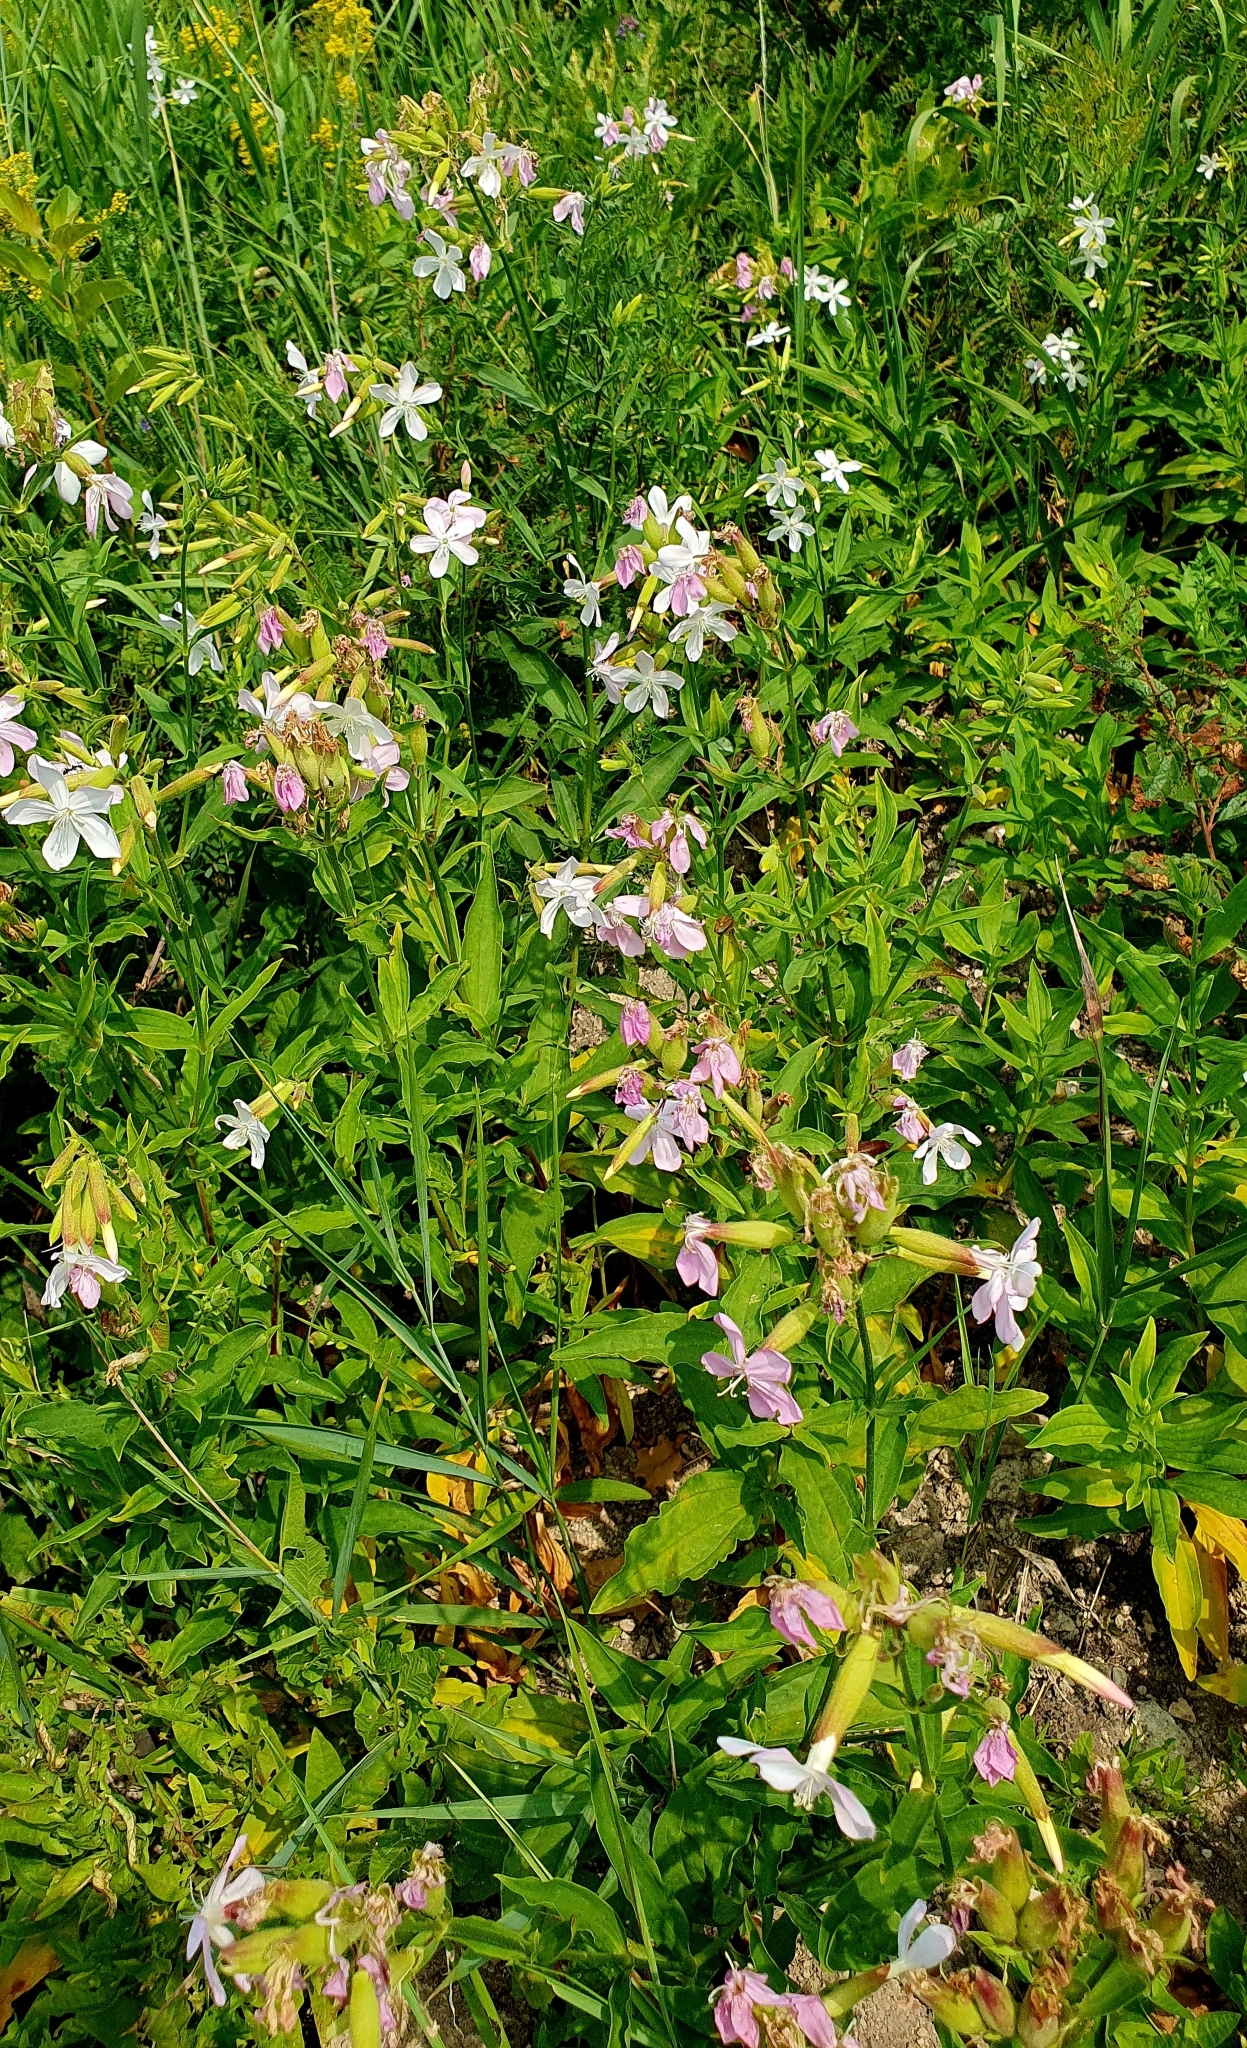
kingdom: Plantae
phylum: Tracheophyta
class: Magnoliopsida
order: Caryophyllales
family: Caryophyllaceae
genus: Saponaria
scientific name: Saponaria officinalis
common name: Soapwort
